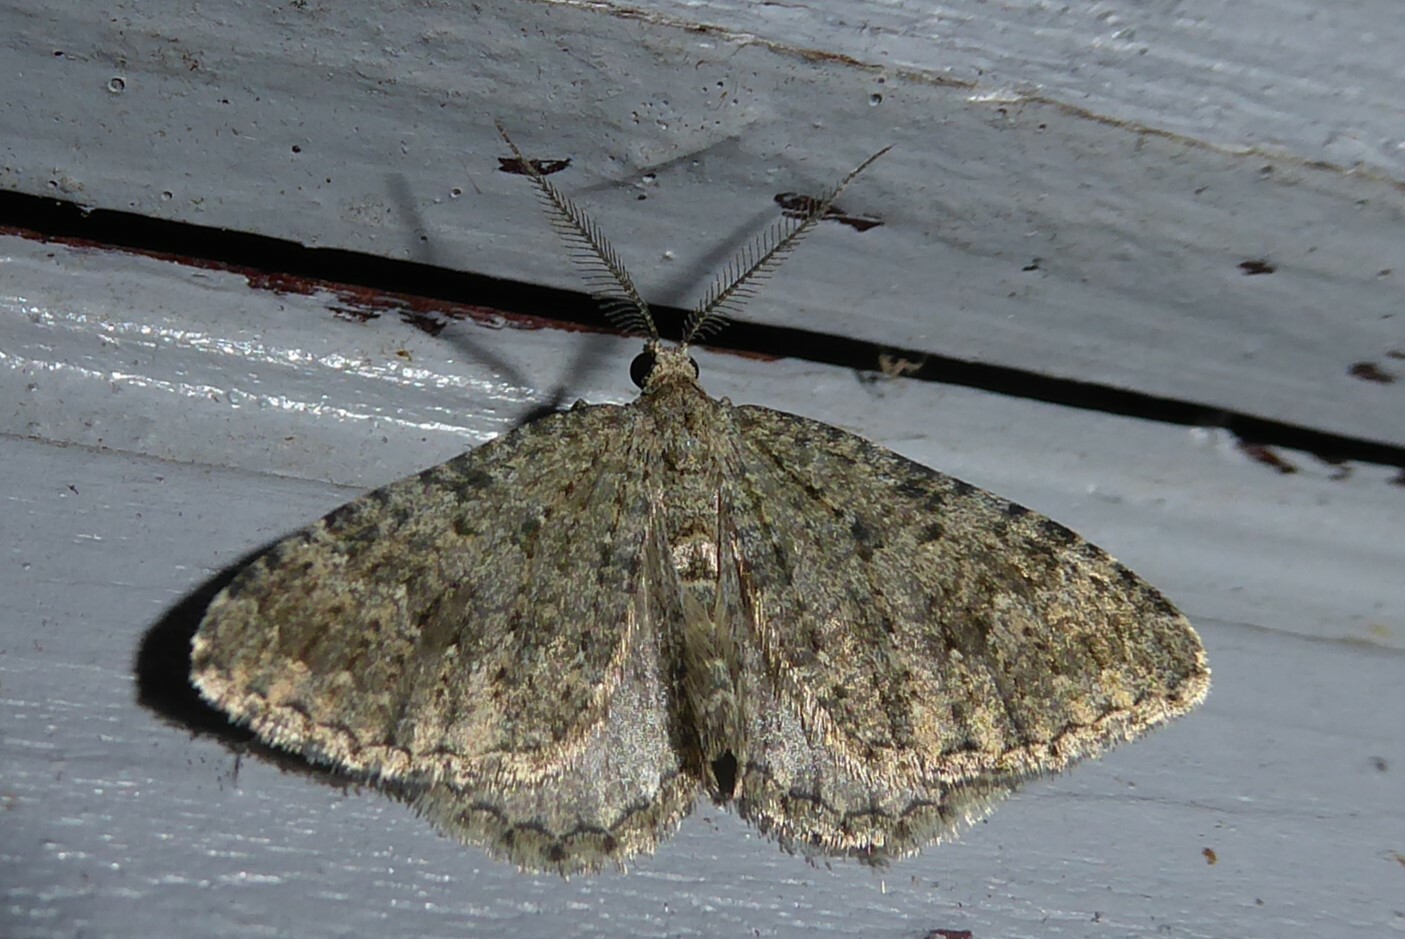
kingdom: Animalia
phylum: Arthropoda
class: Insecta
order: Lepidoptera
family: Geometridae
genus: Helastia
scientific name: Helastia corcularia
